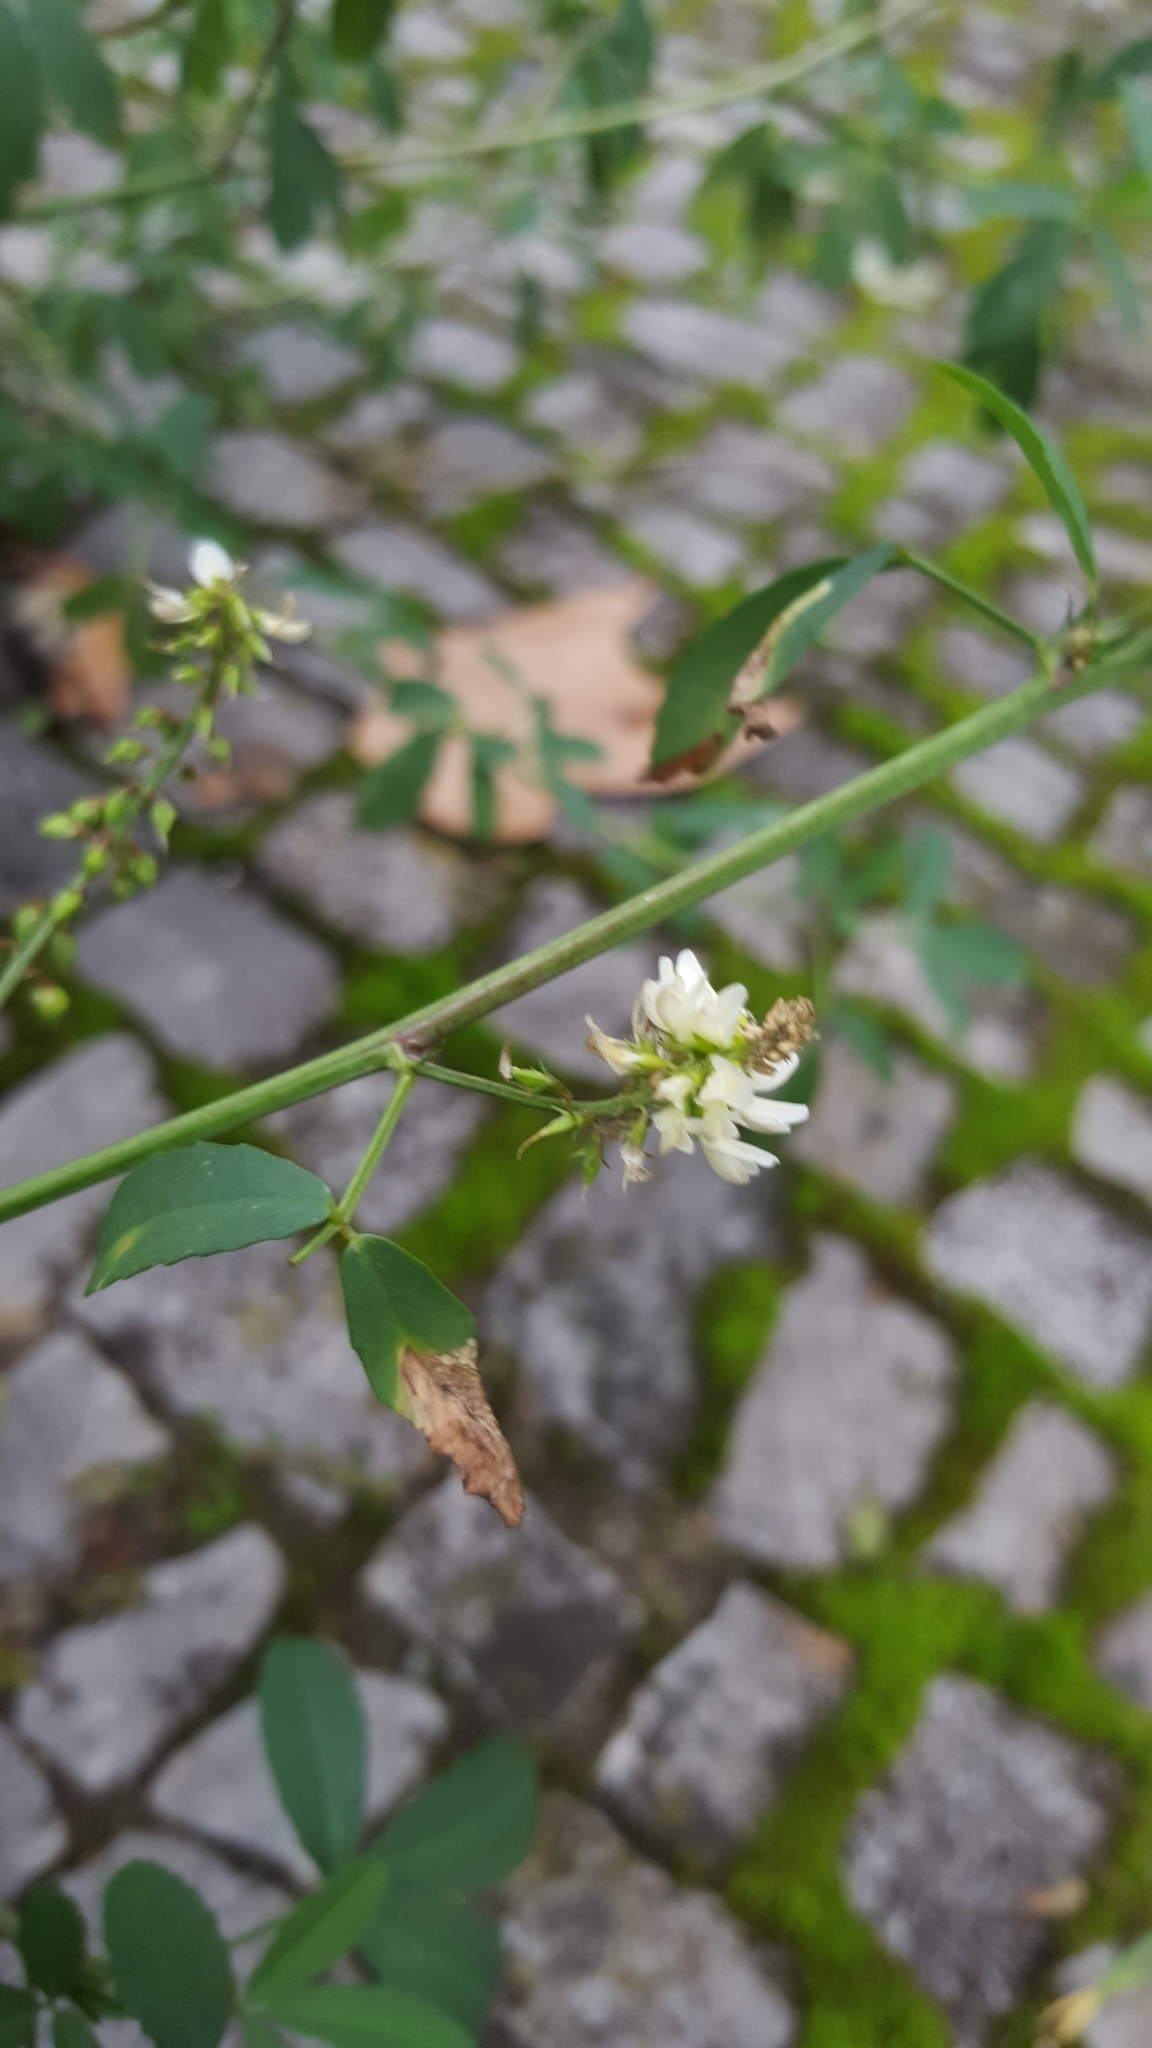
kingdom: Plantae
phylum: Tracheophyta
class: Magnoliopsida
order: Fabales
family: Fabaceae
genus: Melilotus
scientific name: Melilotus albus
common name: White melilot
